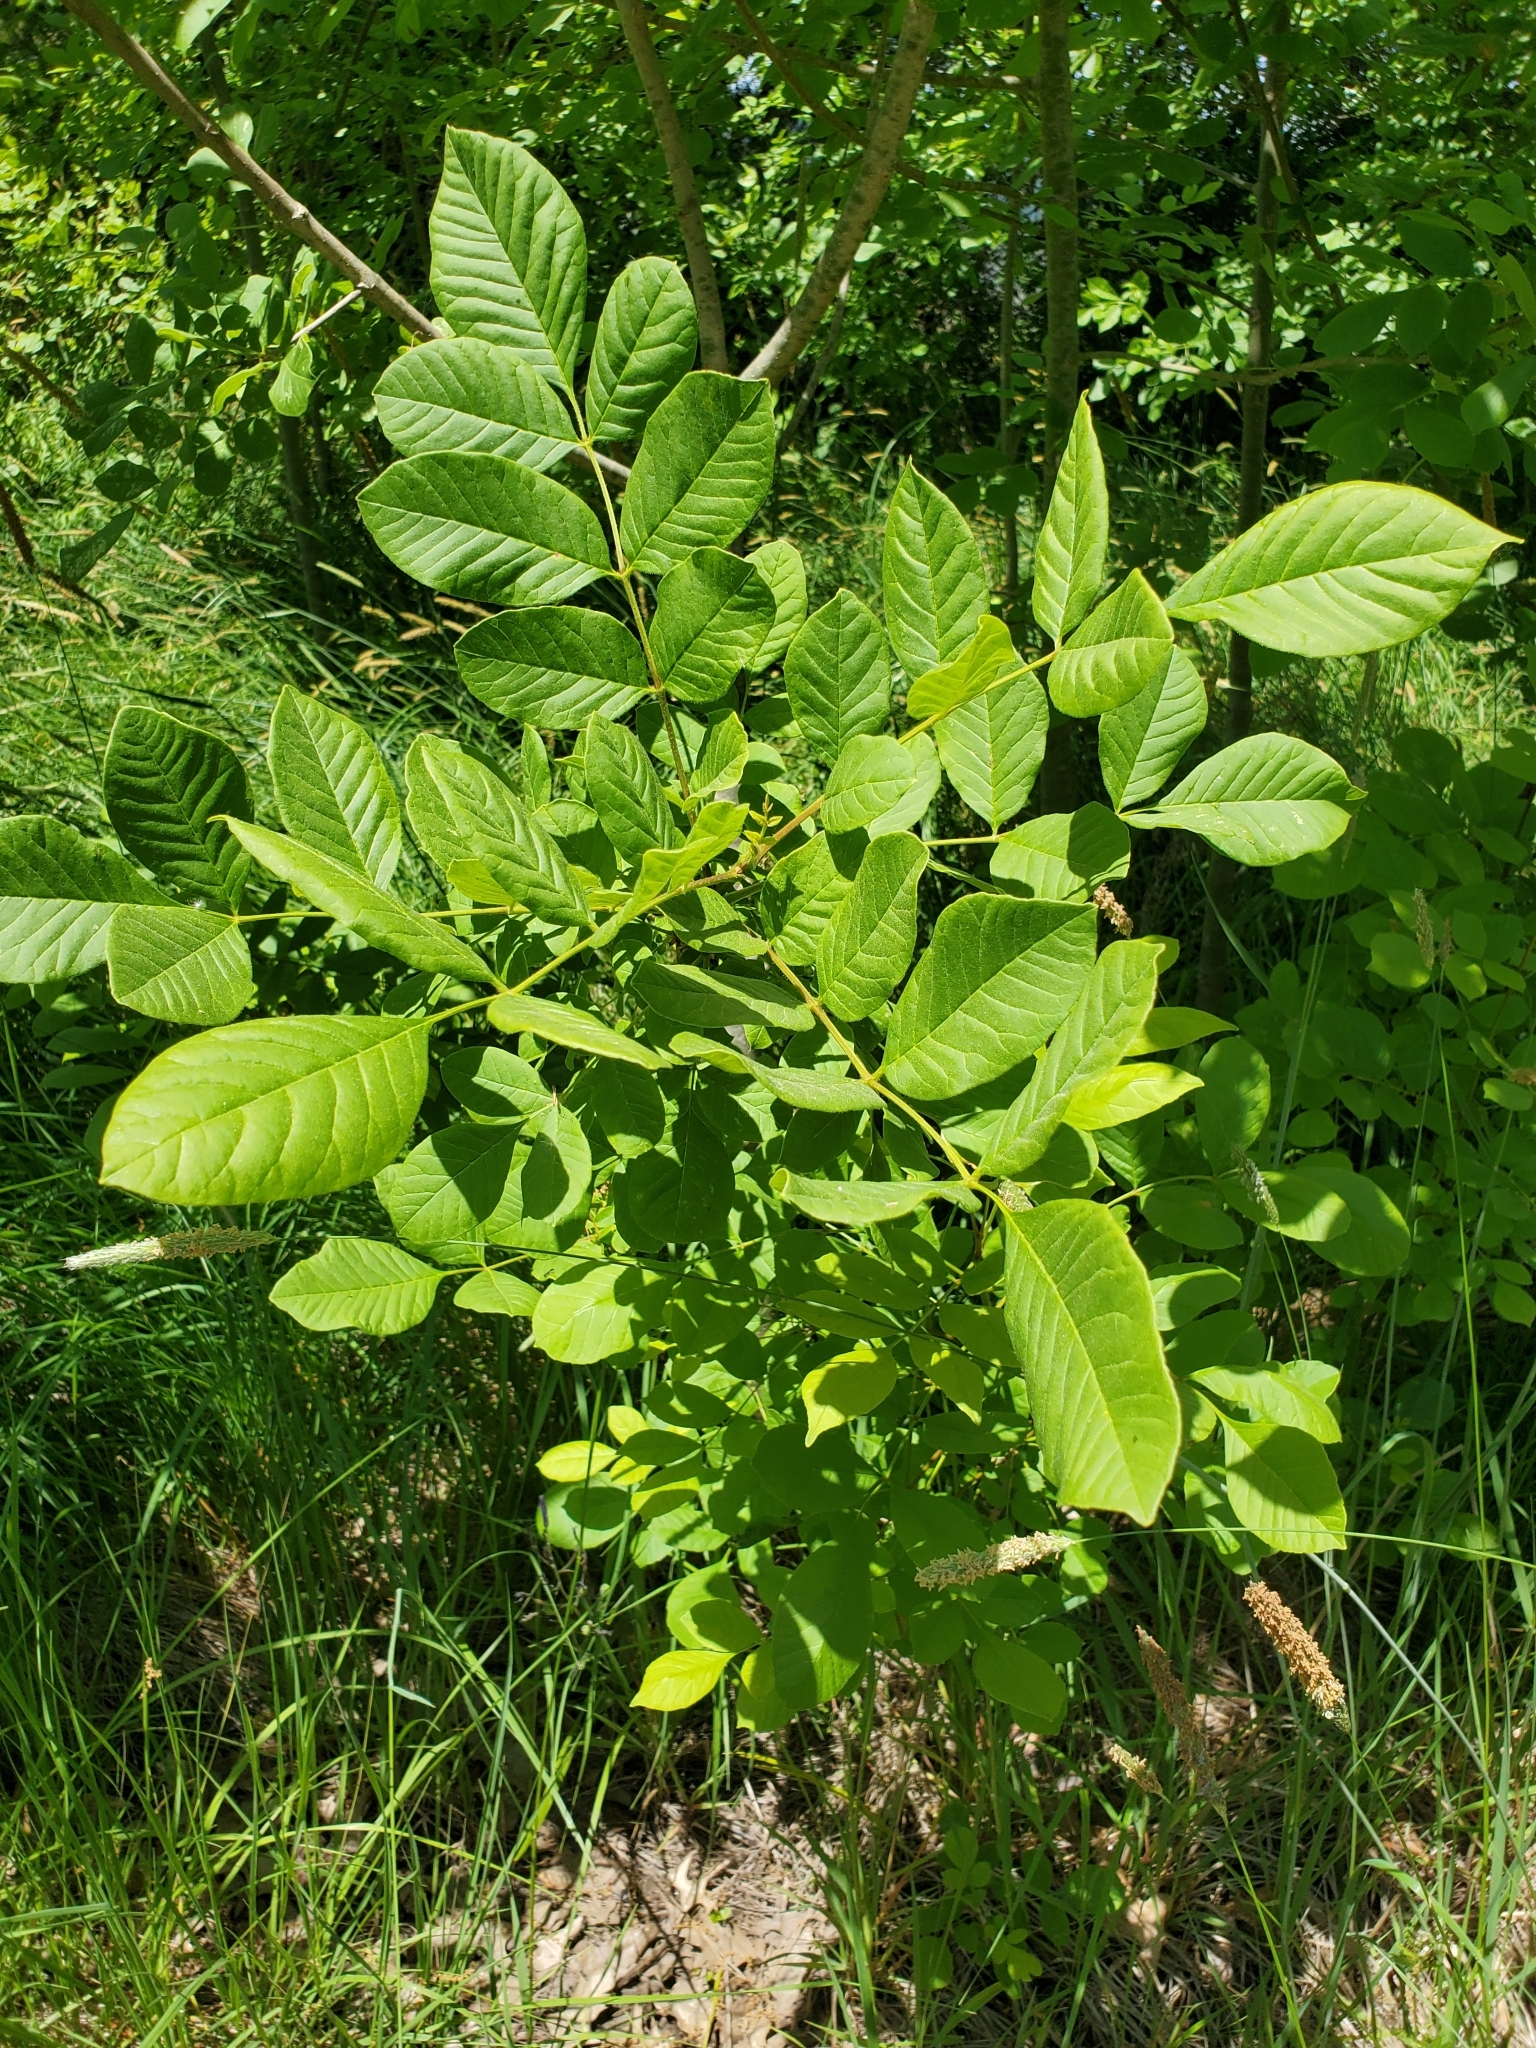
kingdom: Plantae
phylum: Tracheophyta
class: Magnoliopsida
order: Lamiales
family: Oleaceae
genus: Fraxinus
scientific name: Fraxinus latifolia
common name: Oregon ash
